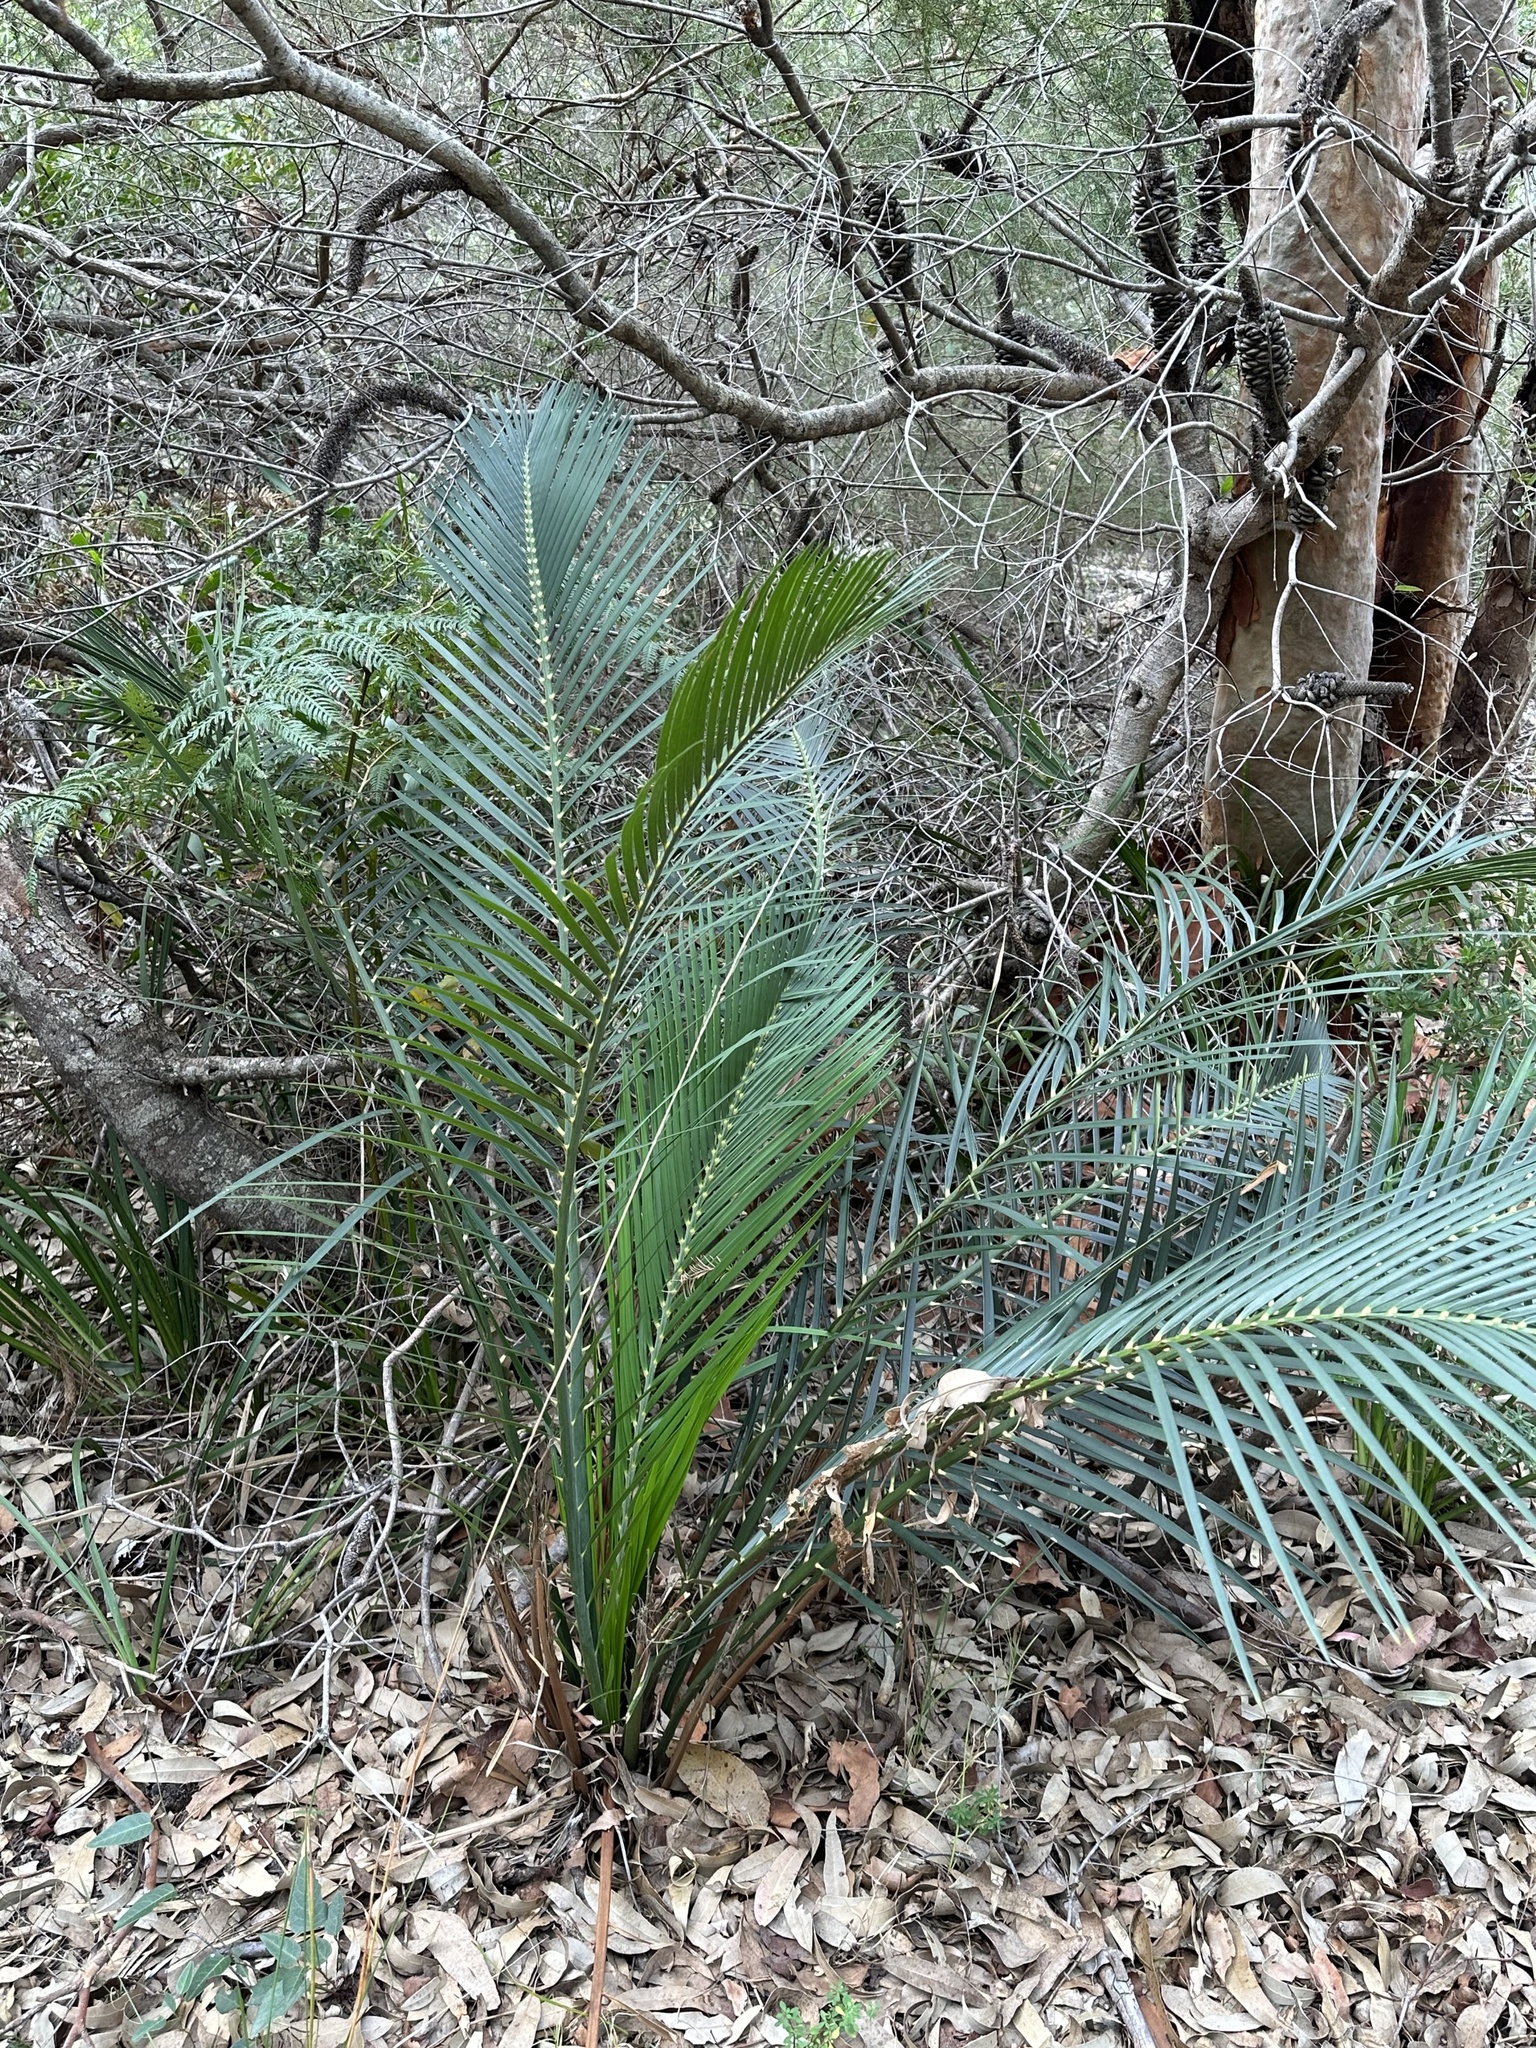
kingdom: Plantae
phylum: Tracheophyta
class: Cycadopsida
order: Cycadales
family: Zamiaceae
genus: Macrozamia
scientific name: Macrozamia communis
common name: Burrawong
